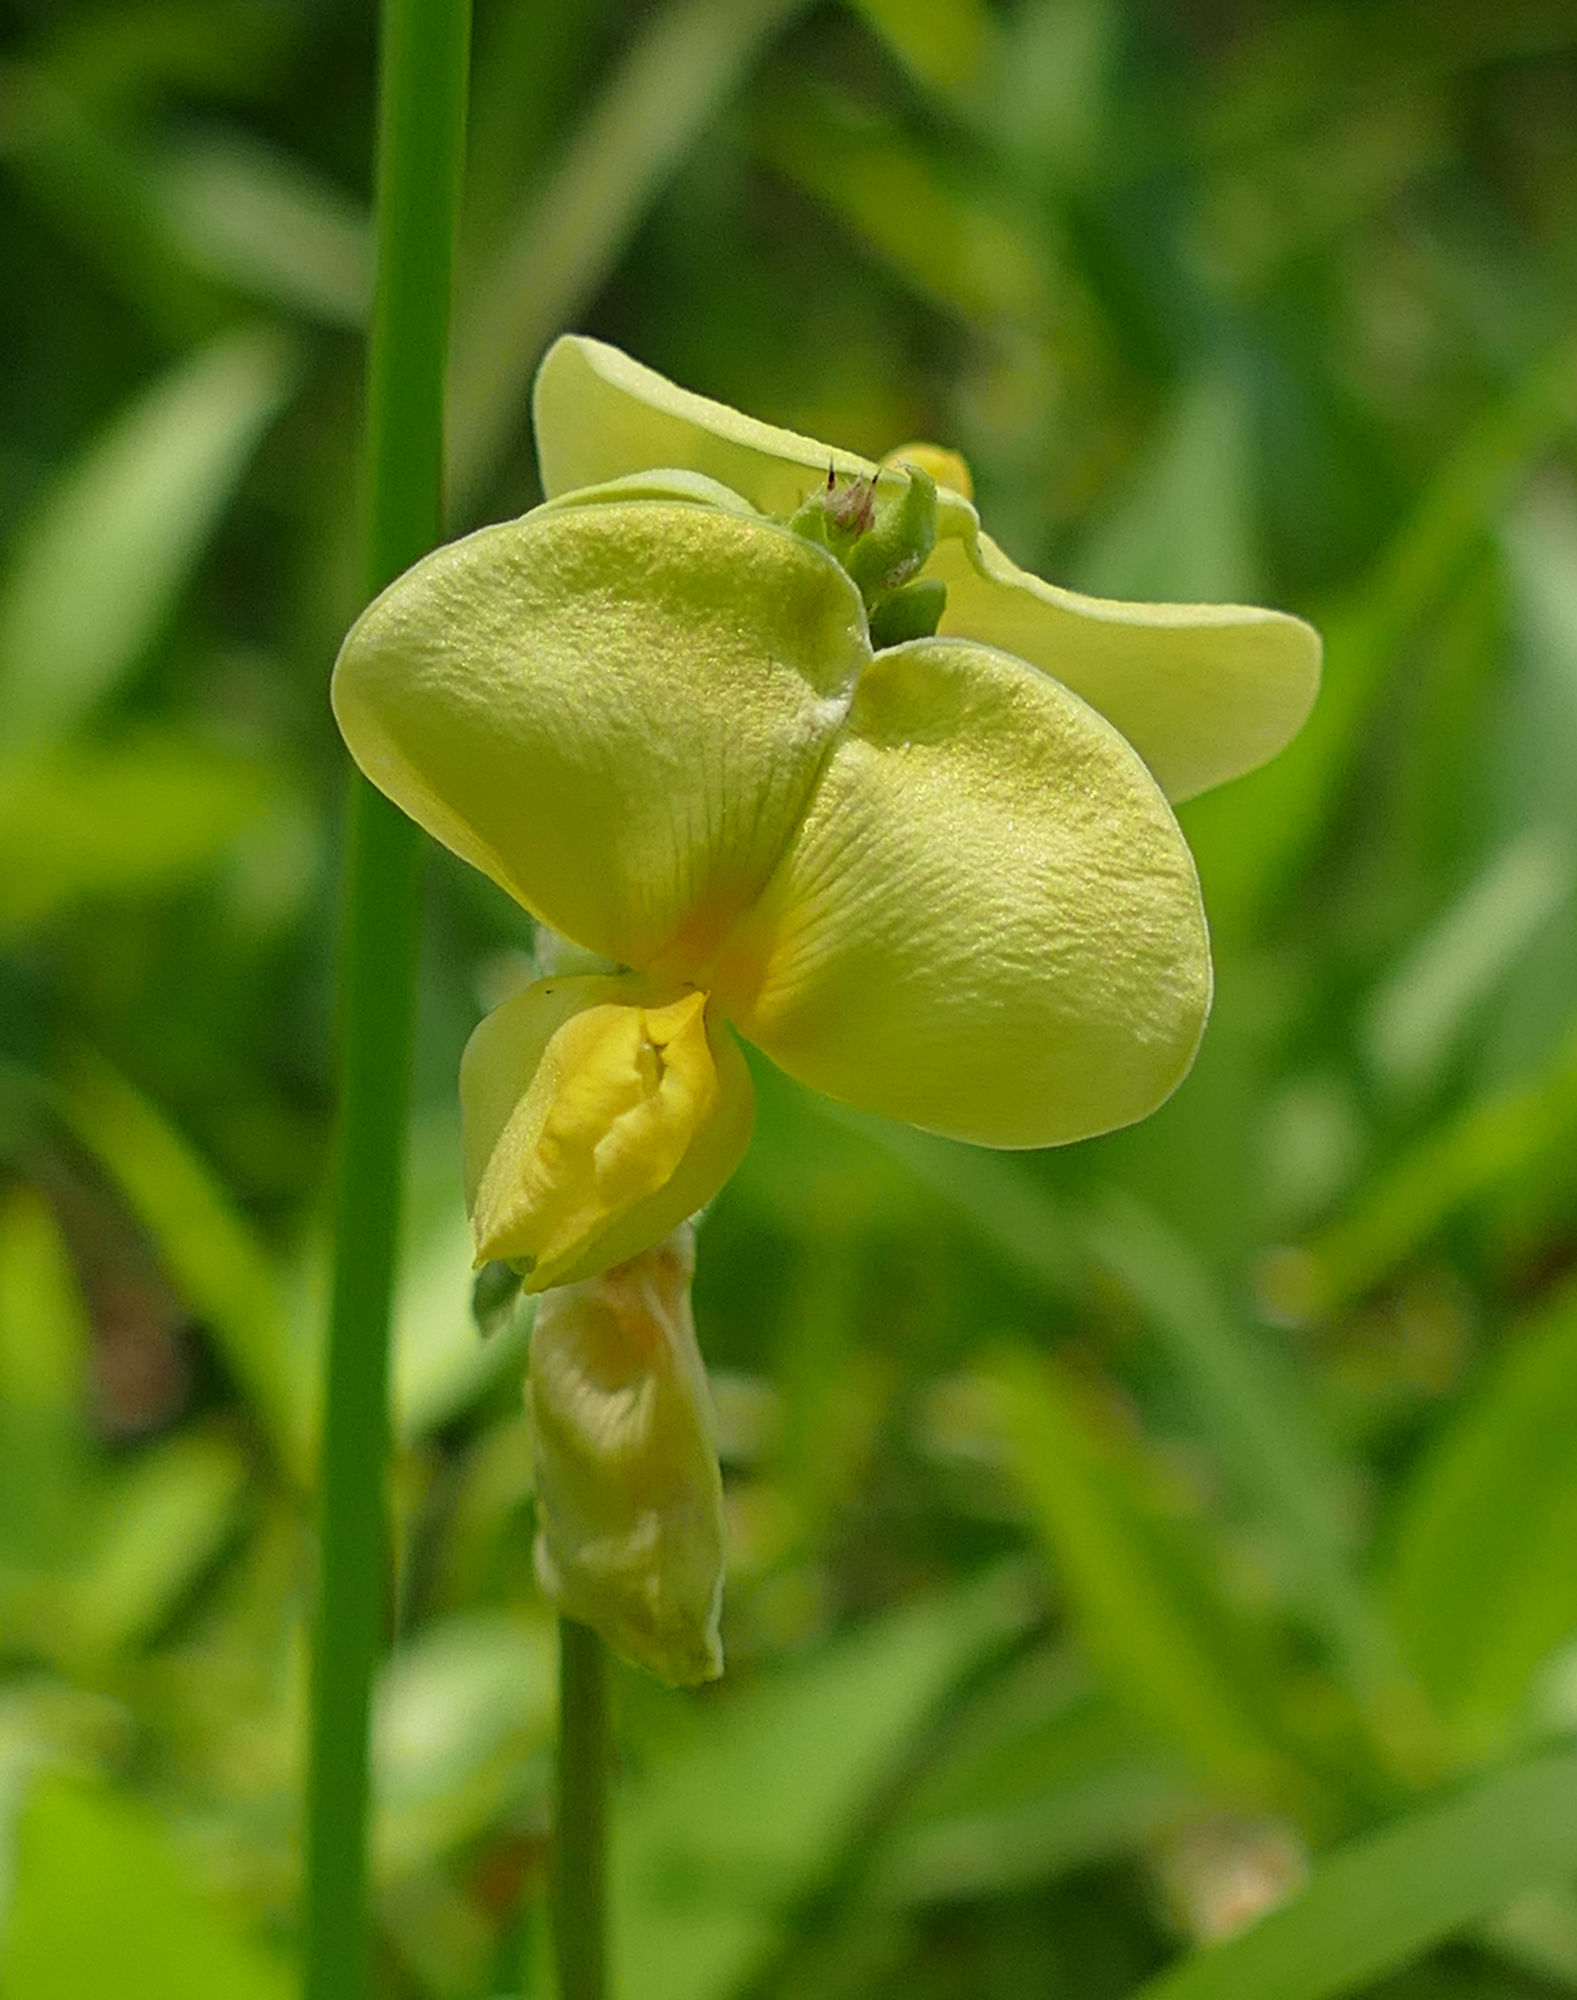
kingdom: Plantae
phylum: Tracheophyta
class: Magnoliopsida
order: Fabales
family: Fabaceae
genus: Vigna
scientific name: Vigna luteola
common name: Hairypod cowpea
